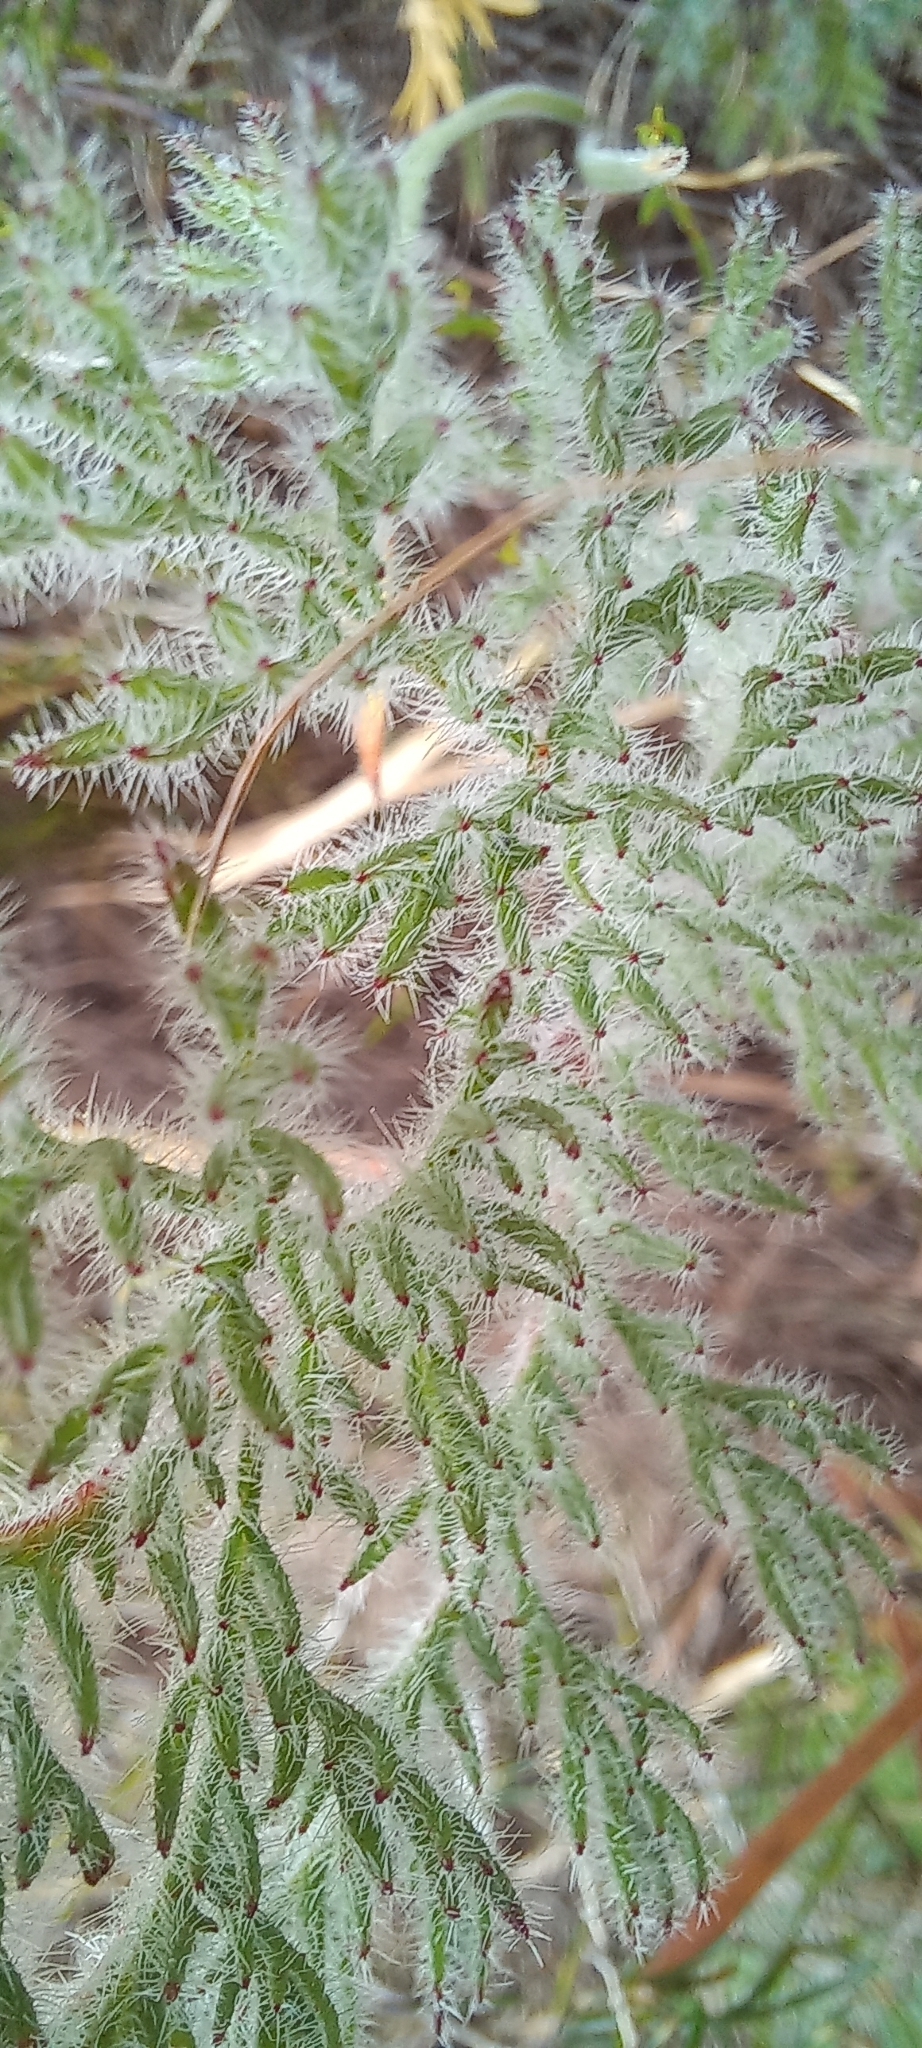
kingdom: Plantae
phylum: Tracheophyta
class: Magnoliopsida
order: Geraniales
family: Geraniaceae
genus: Pelargonium
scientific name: Pelargonium triste
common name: Night-scent pelargonium
